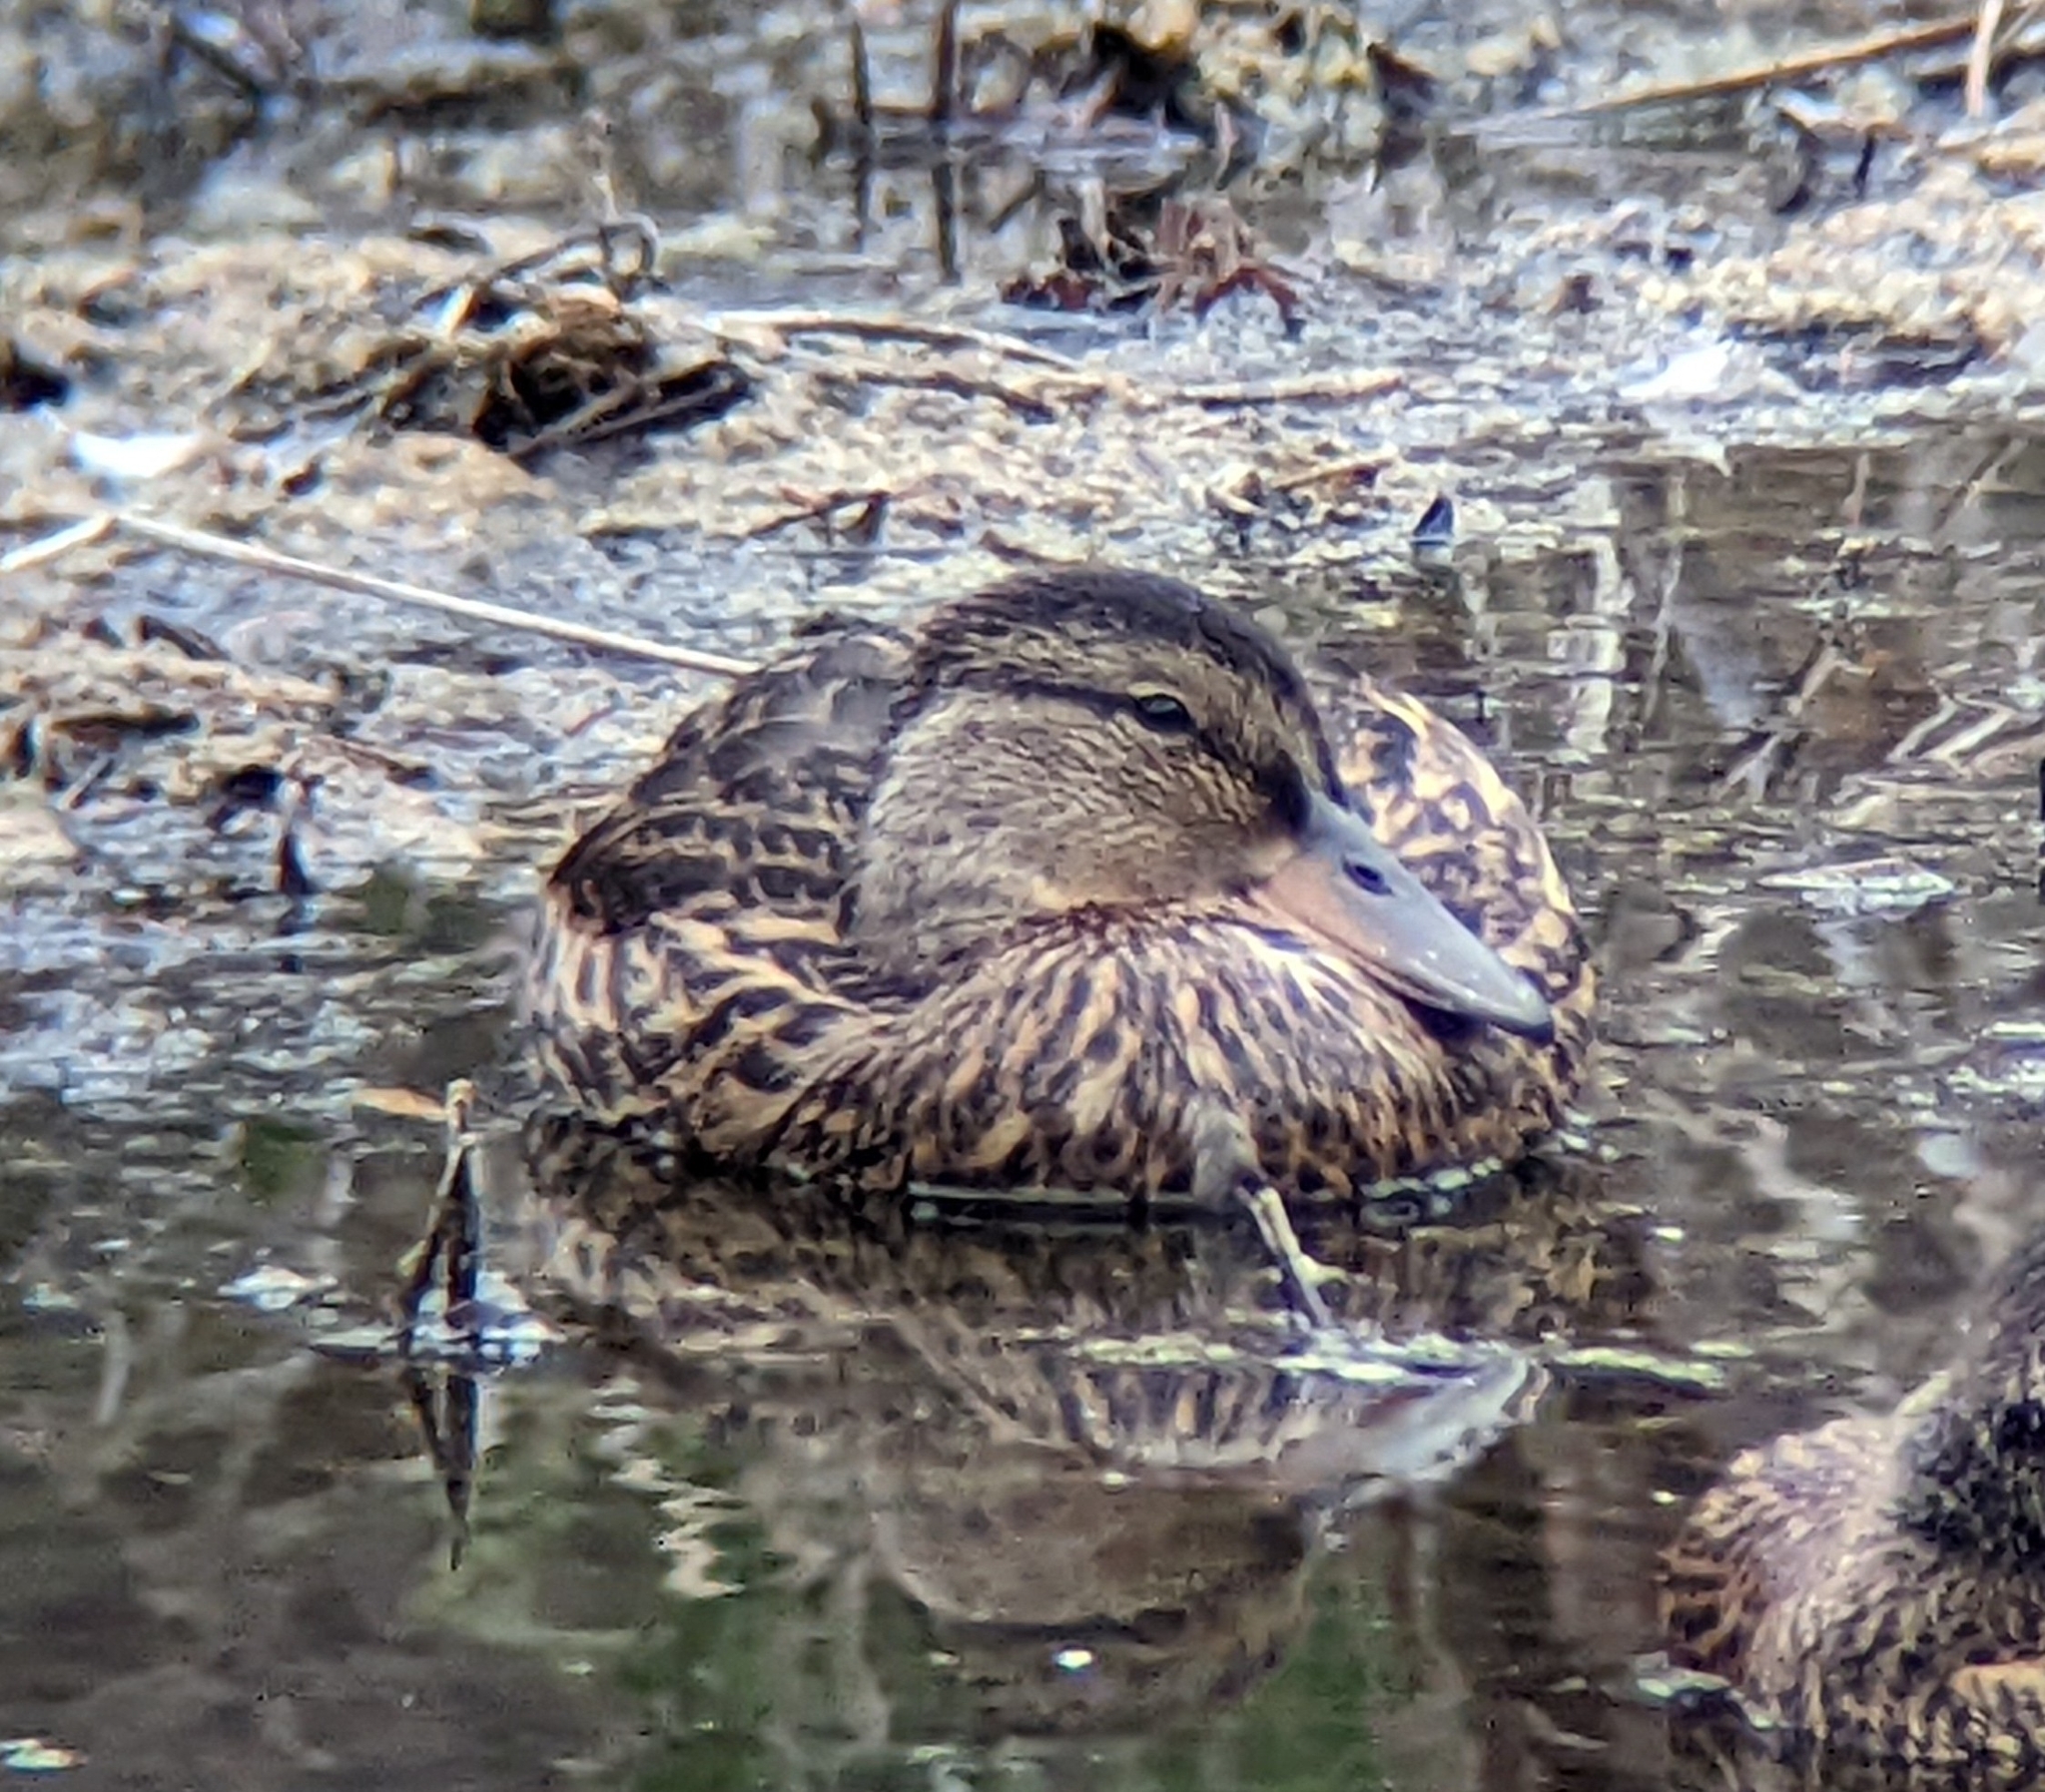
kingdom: Animalia
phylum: Chordata
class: Aves
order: Anseriformes
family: Anatidae
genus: Anas
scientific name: Anas platyrhynchos
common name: Mallard
